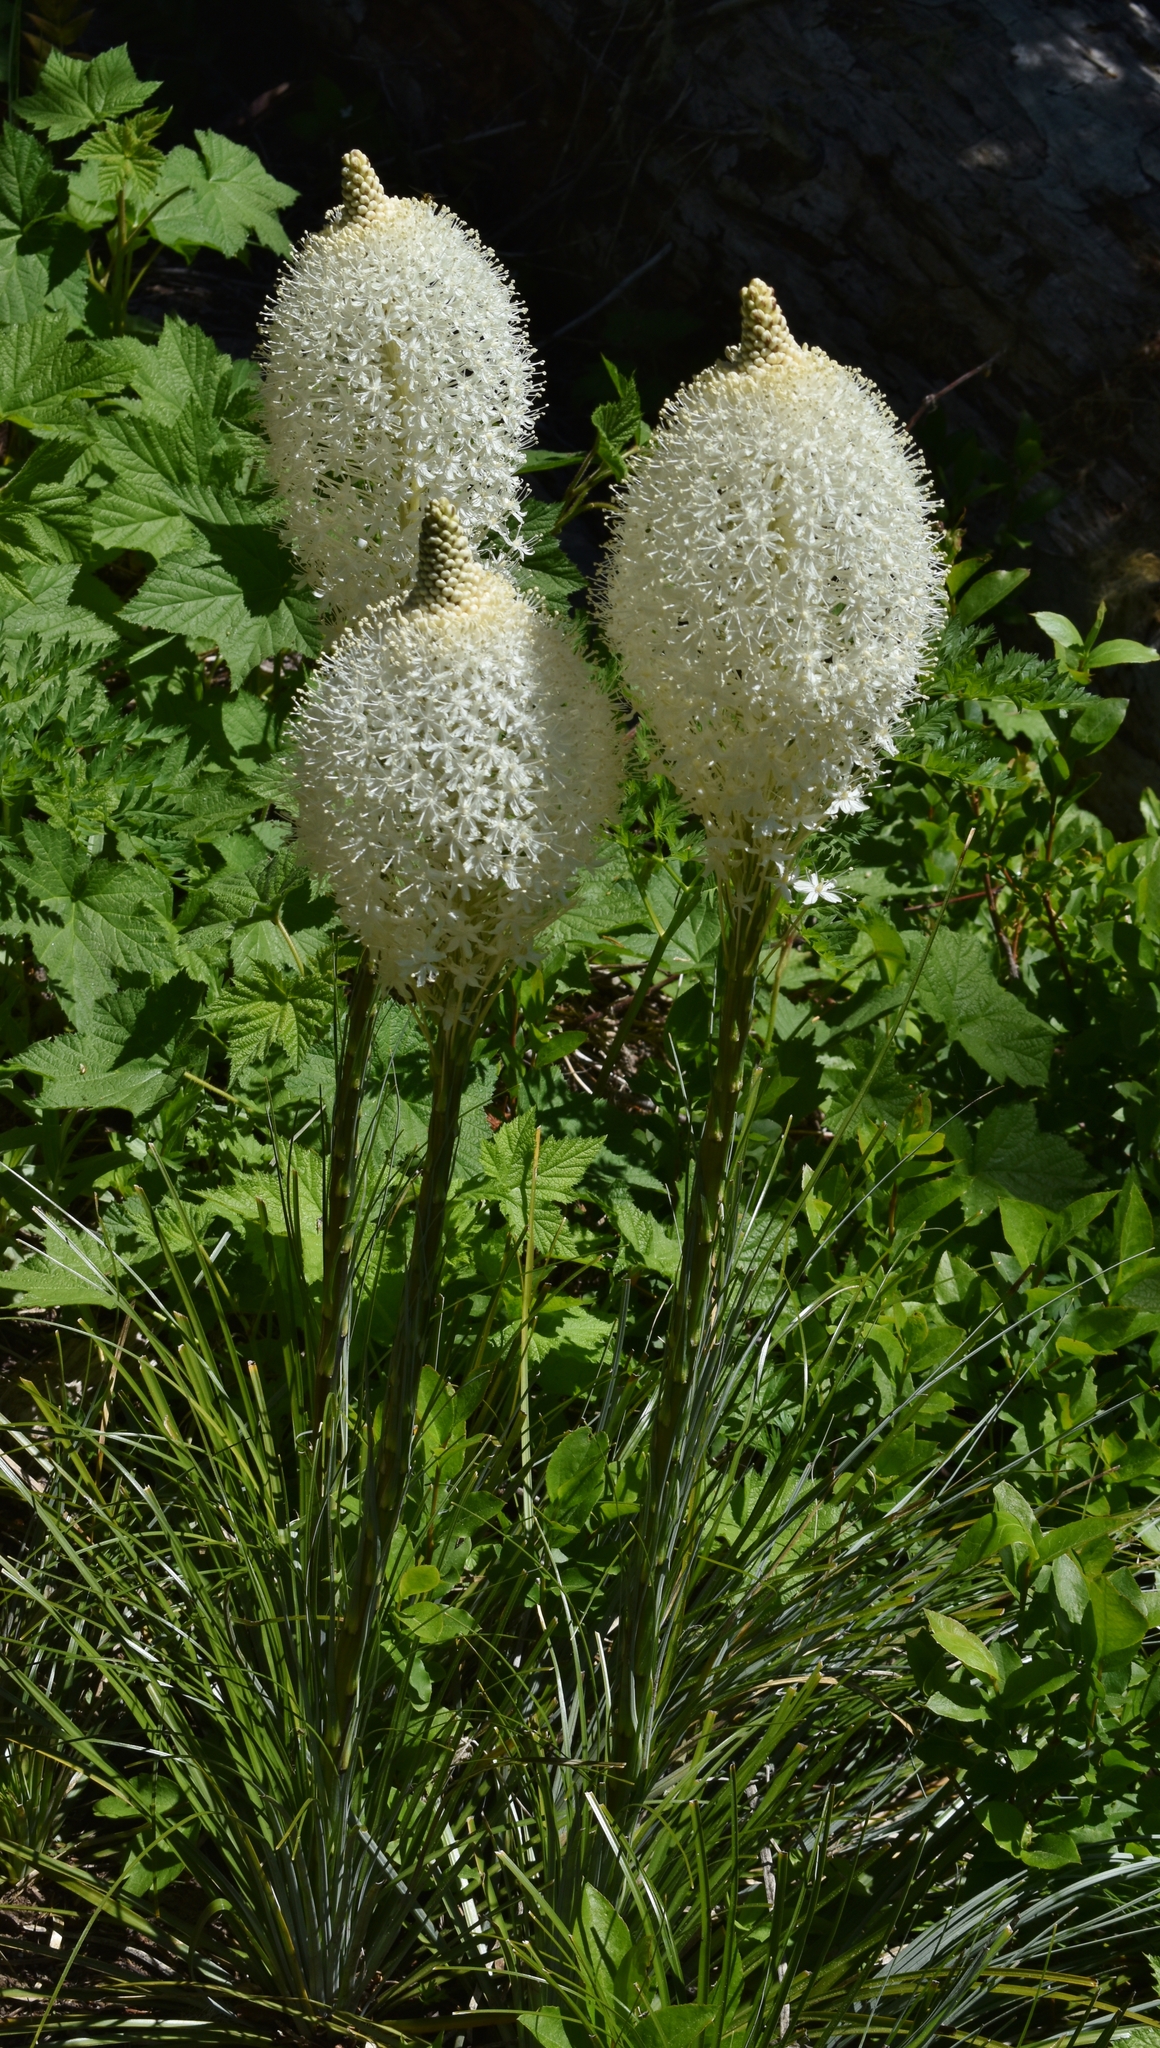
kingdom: Plantae
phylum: Tracheophyta
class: Liliopsida
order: Liliales
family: Melanthiaceae
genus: Xerophyllum
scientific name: Xerophyllum tenax
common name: Bear-grass
